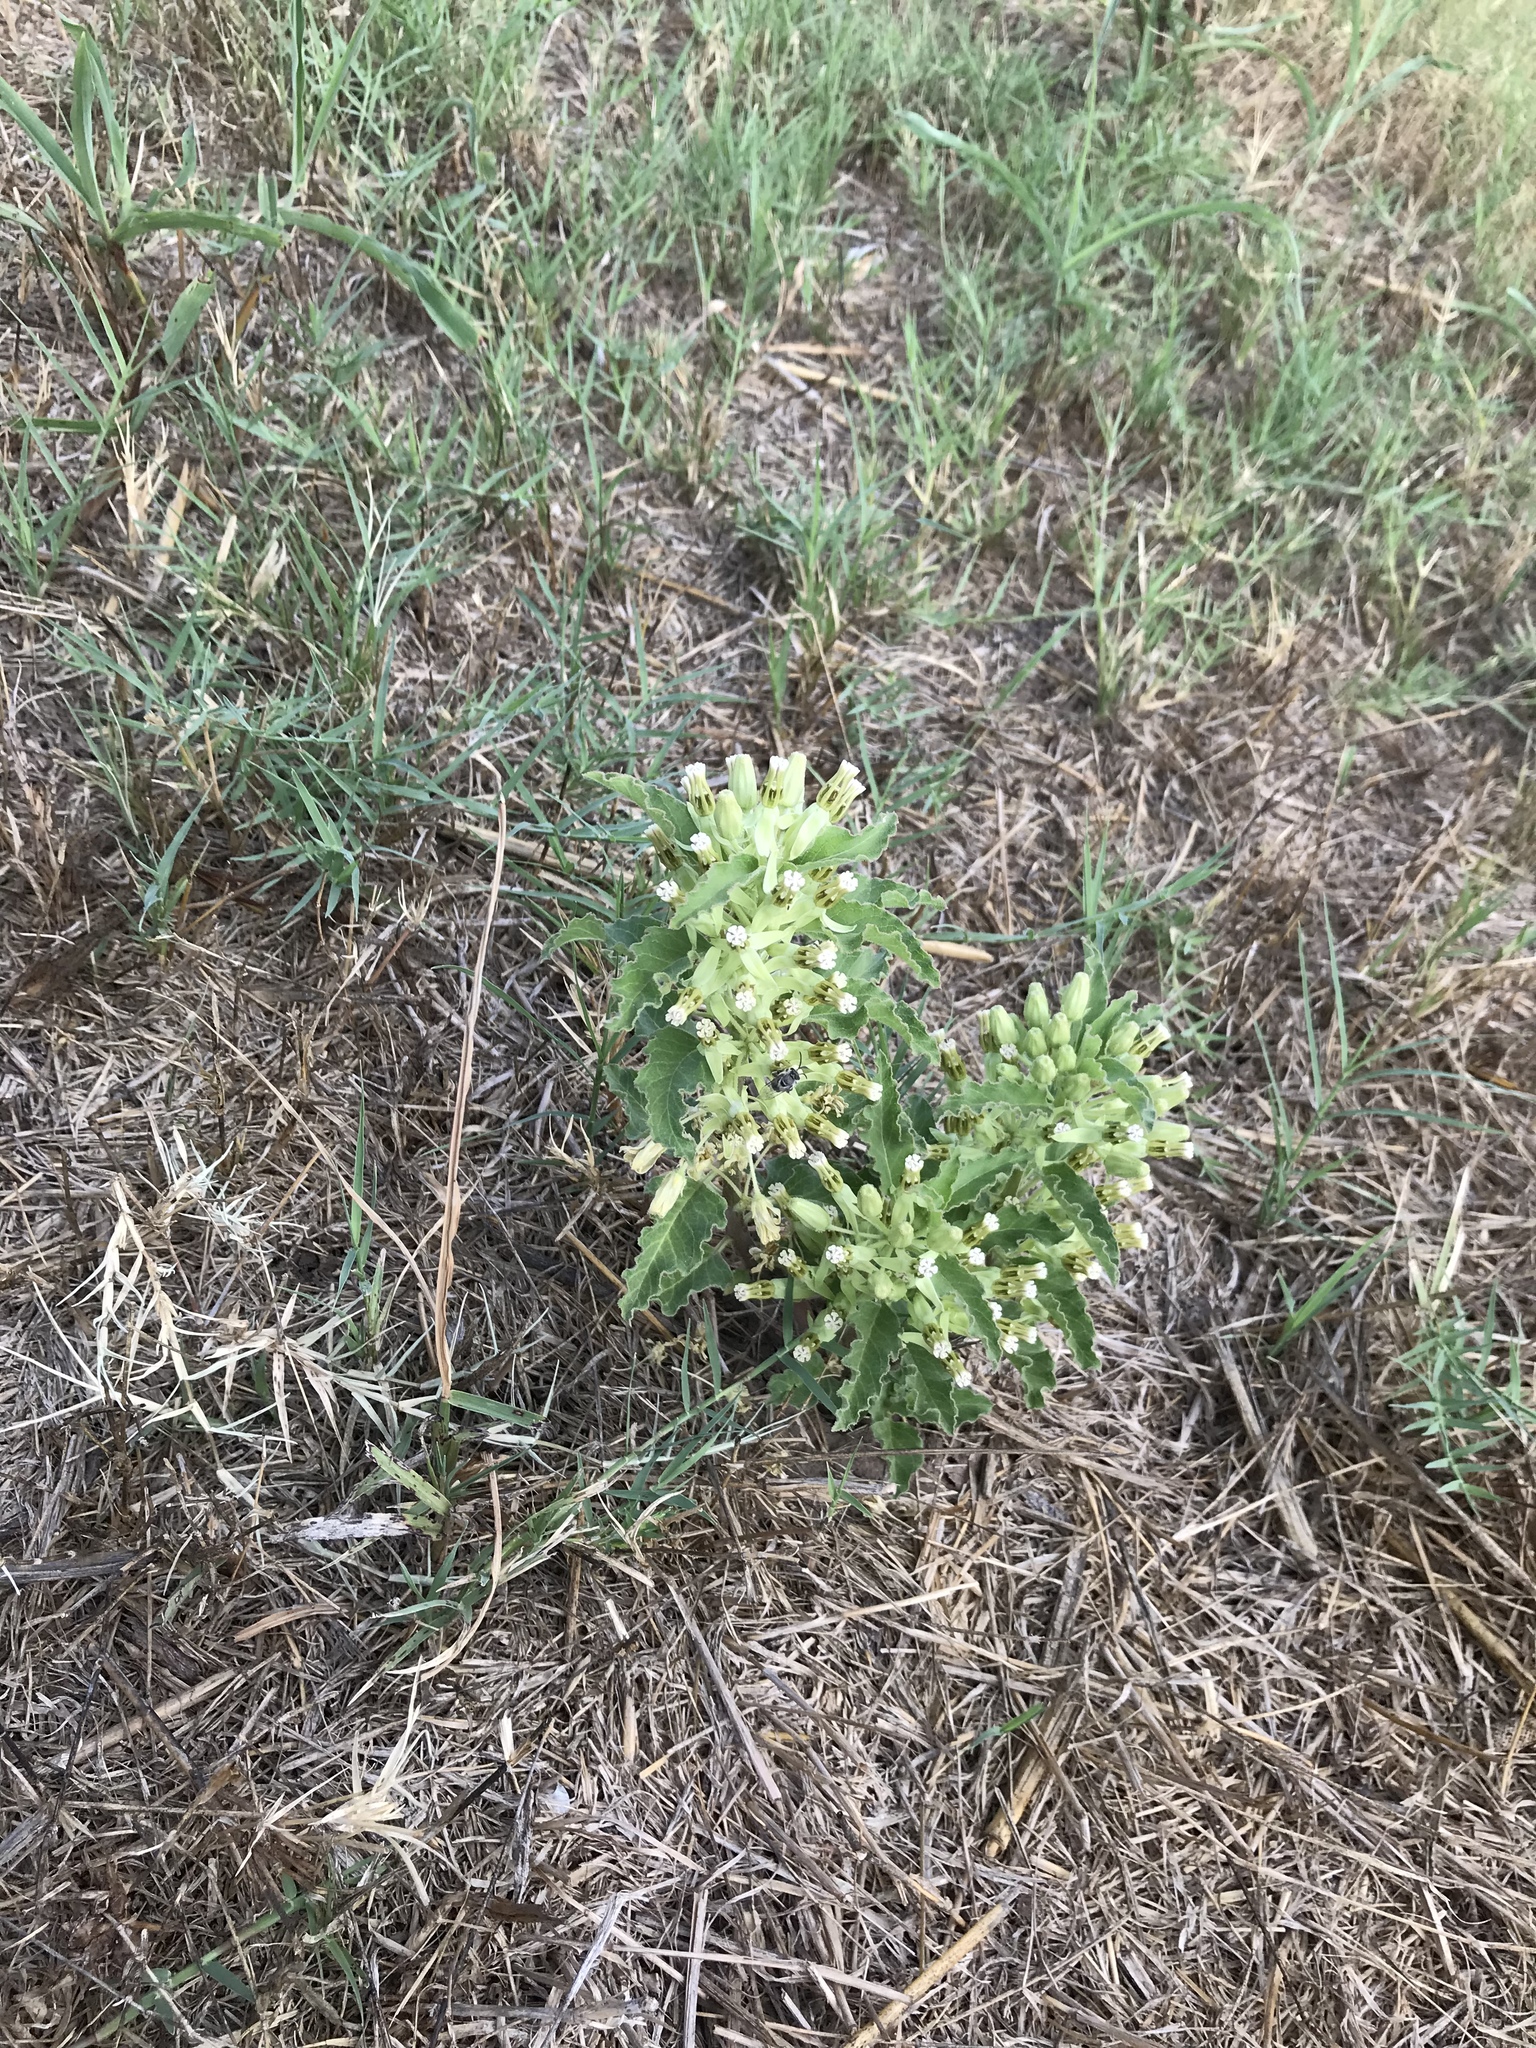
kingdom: Plantae
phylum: Tracheophyta
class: Magnoliopsida
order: Gentianales
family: Apocynaceae
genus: Asclepias
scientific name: Asclepias oenotheroides
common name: Zizotes milkweed
